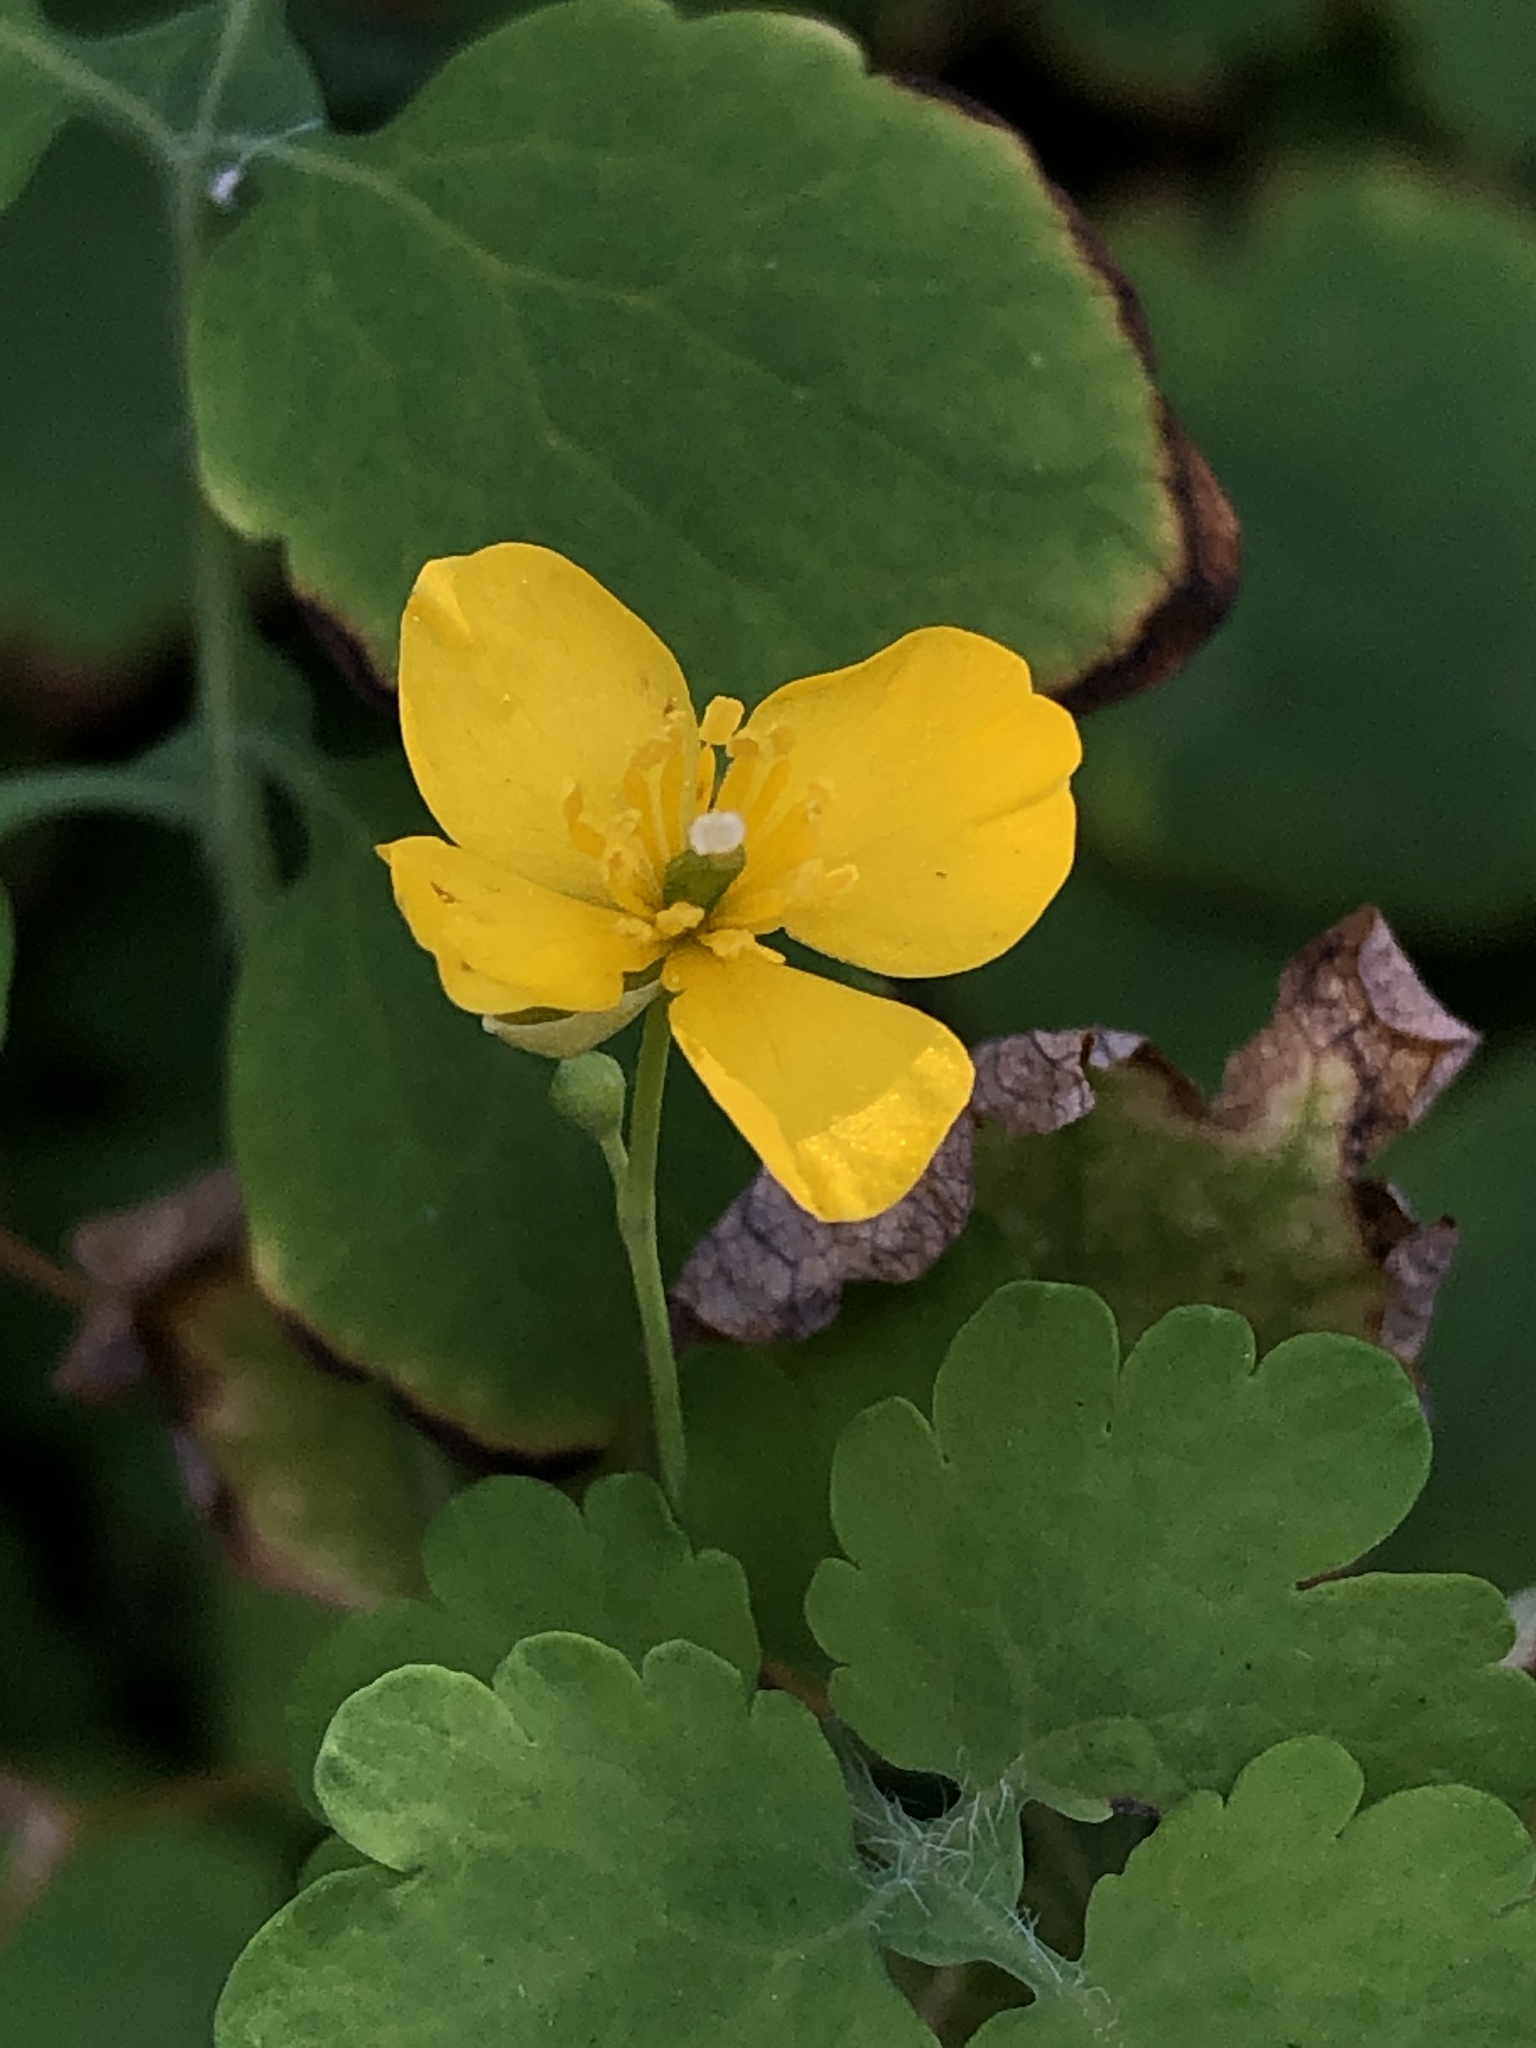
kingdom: Plantae
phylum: Tracheophyta
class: Magnoliopsida
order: Ranunculales
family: Papaveraceae
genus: Chelidonium
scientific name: Chelidonium majus
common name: Greater celandine
